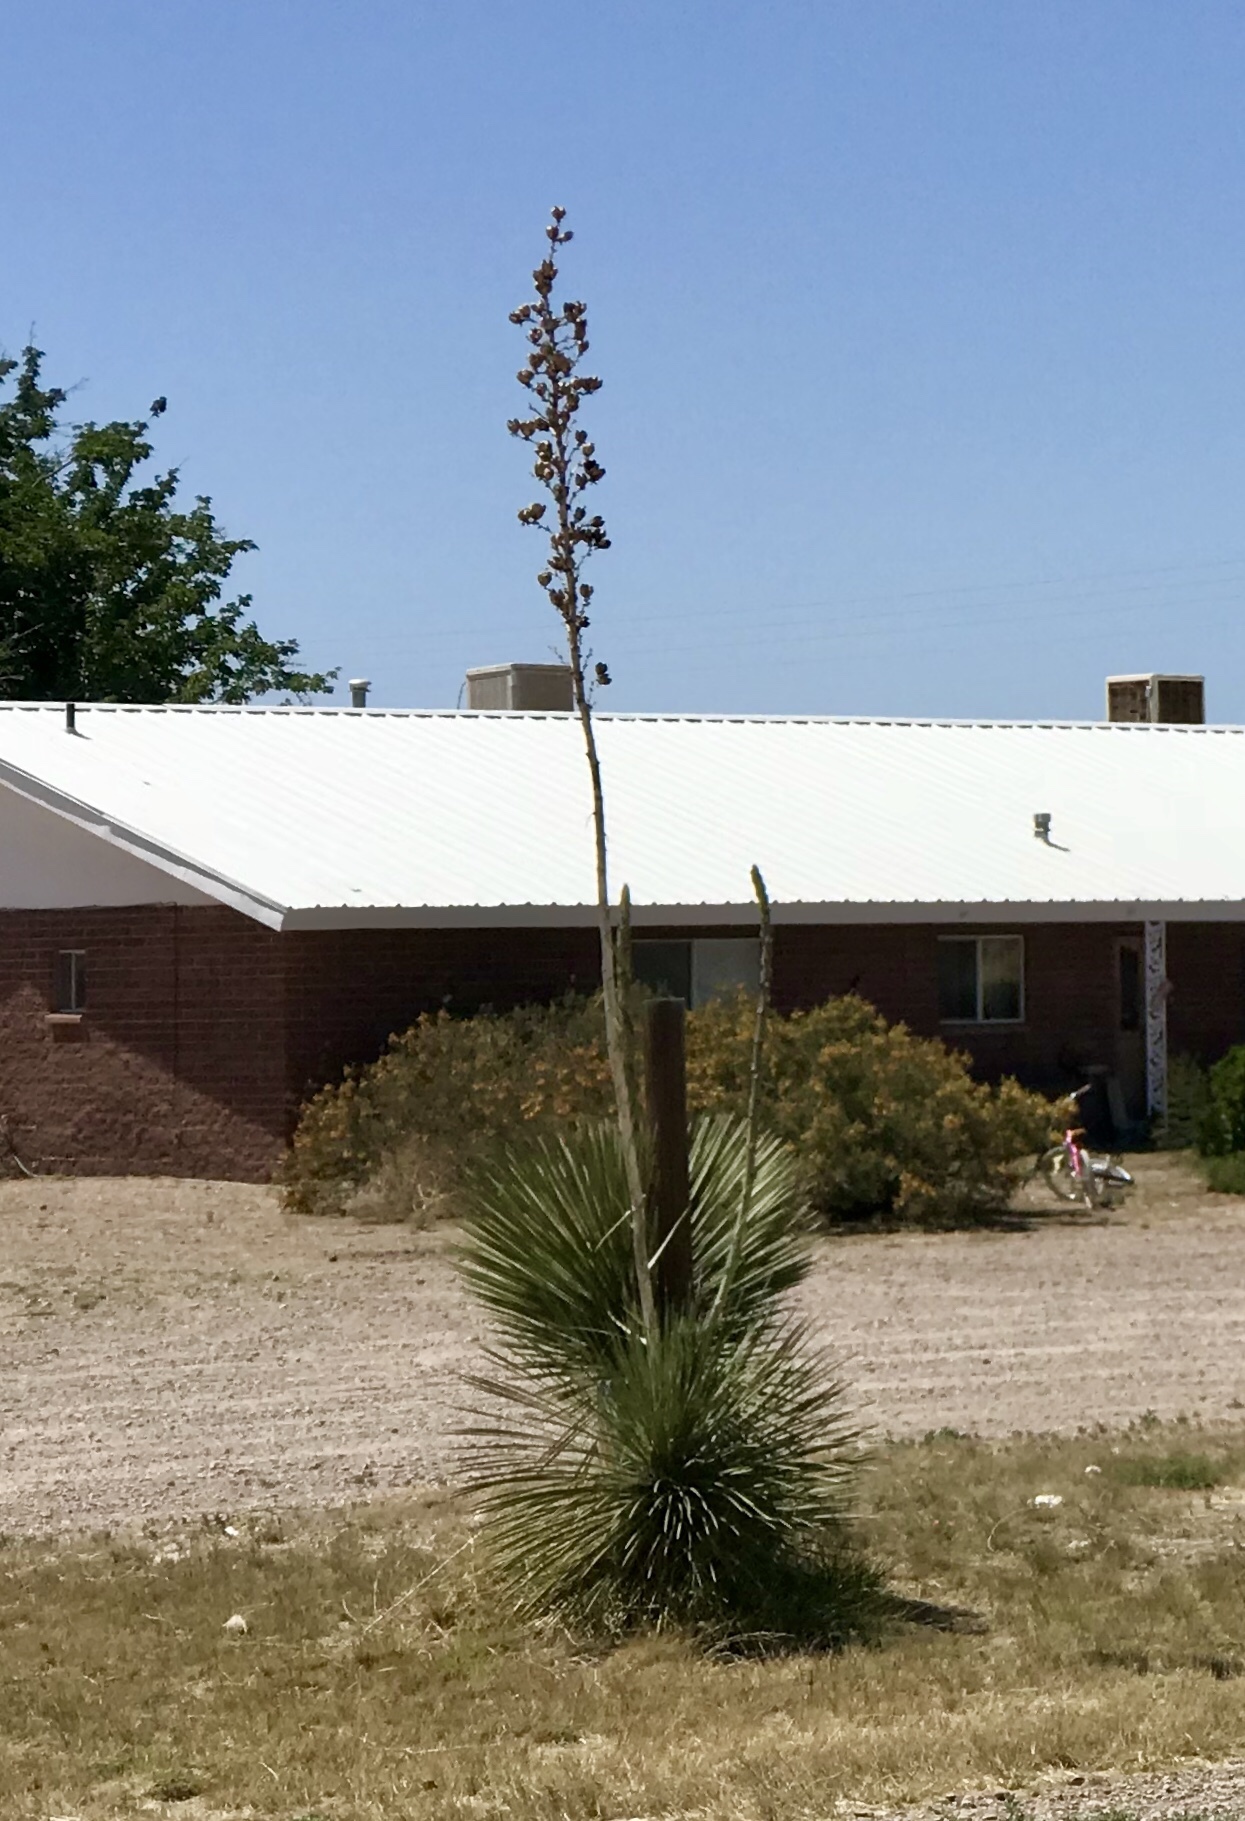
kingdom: Plantae
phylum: Tracheophyta
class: Liliopsida
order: Asparagales
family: Asparagaceae
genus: Yucca
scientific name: Yucca elata
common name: Palmella
